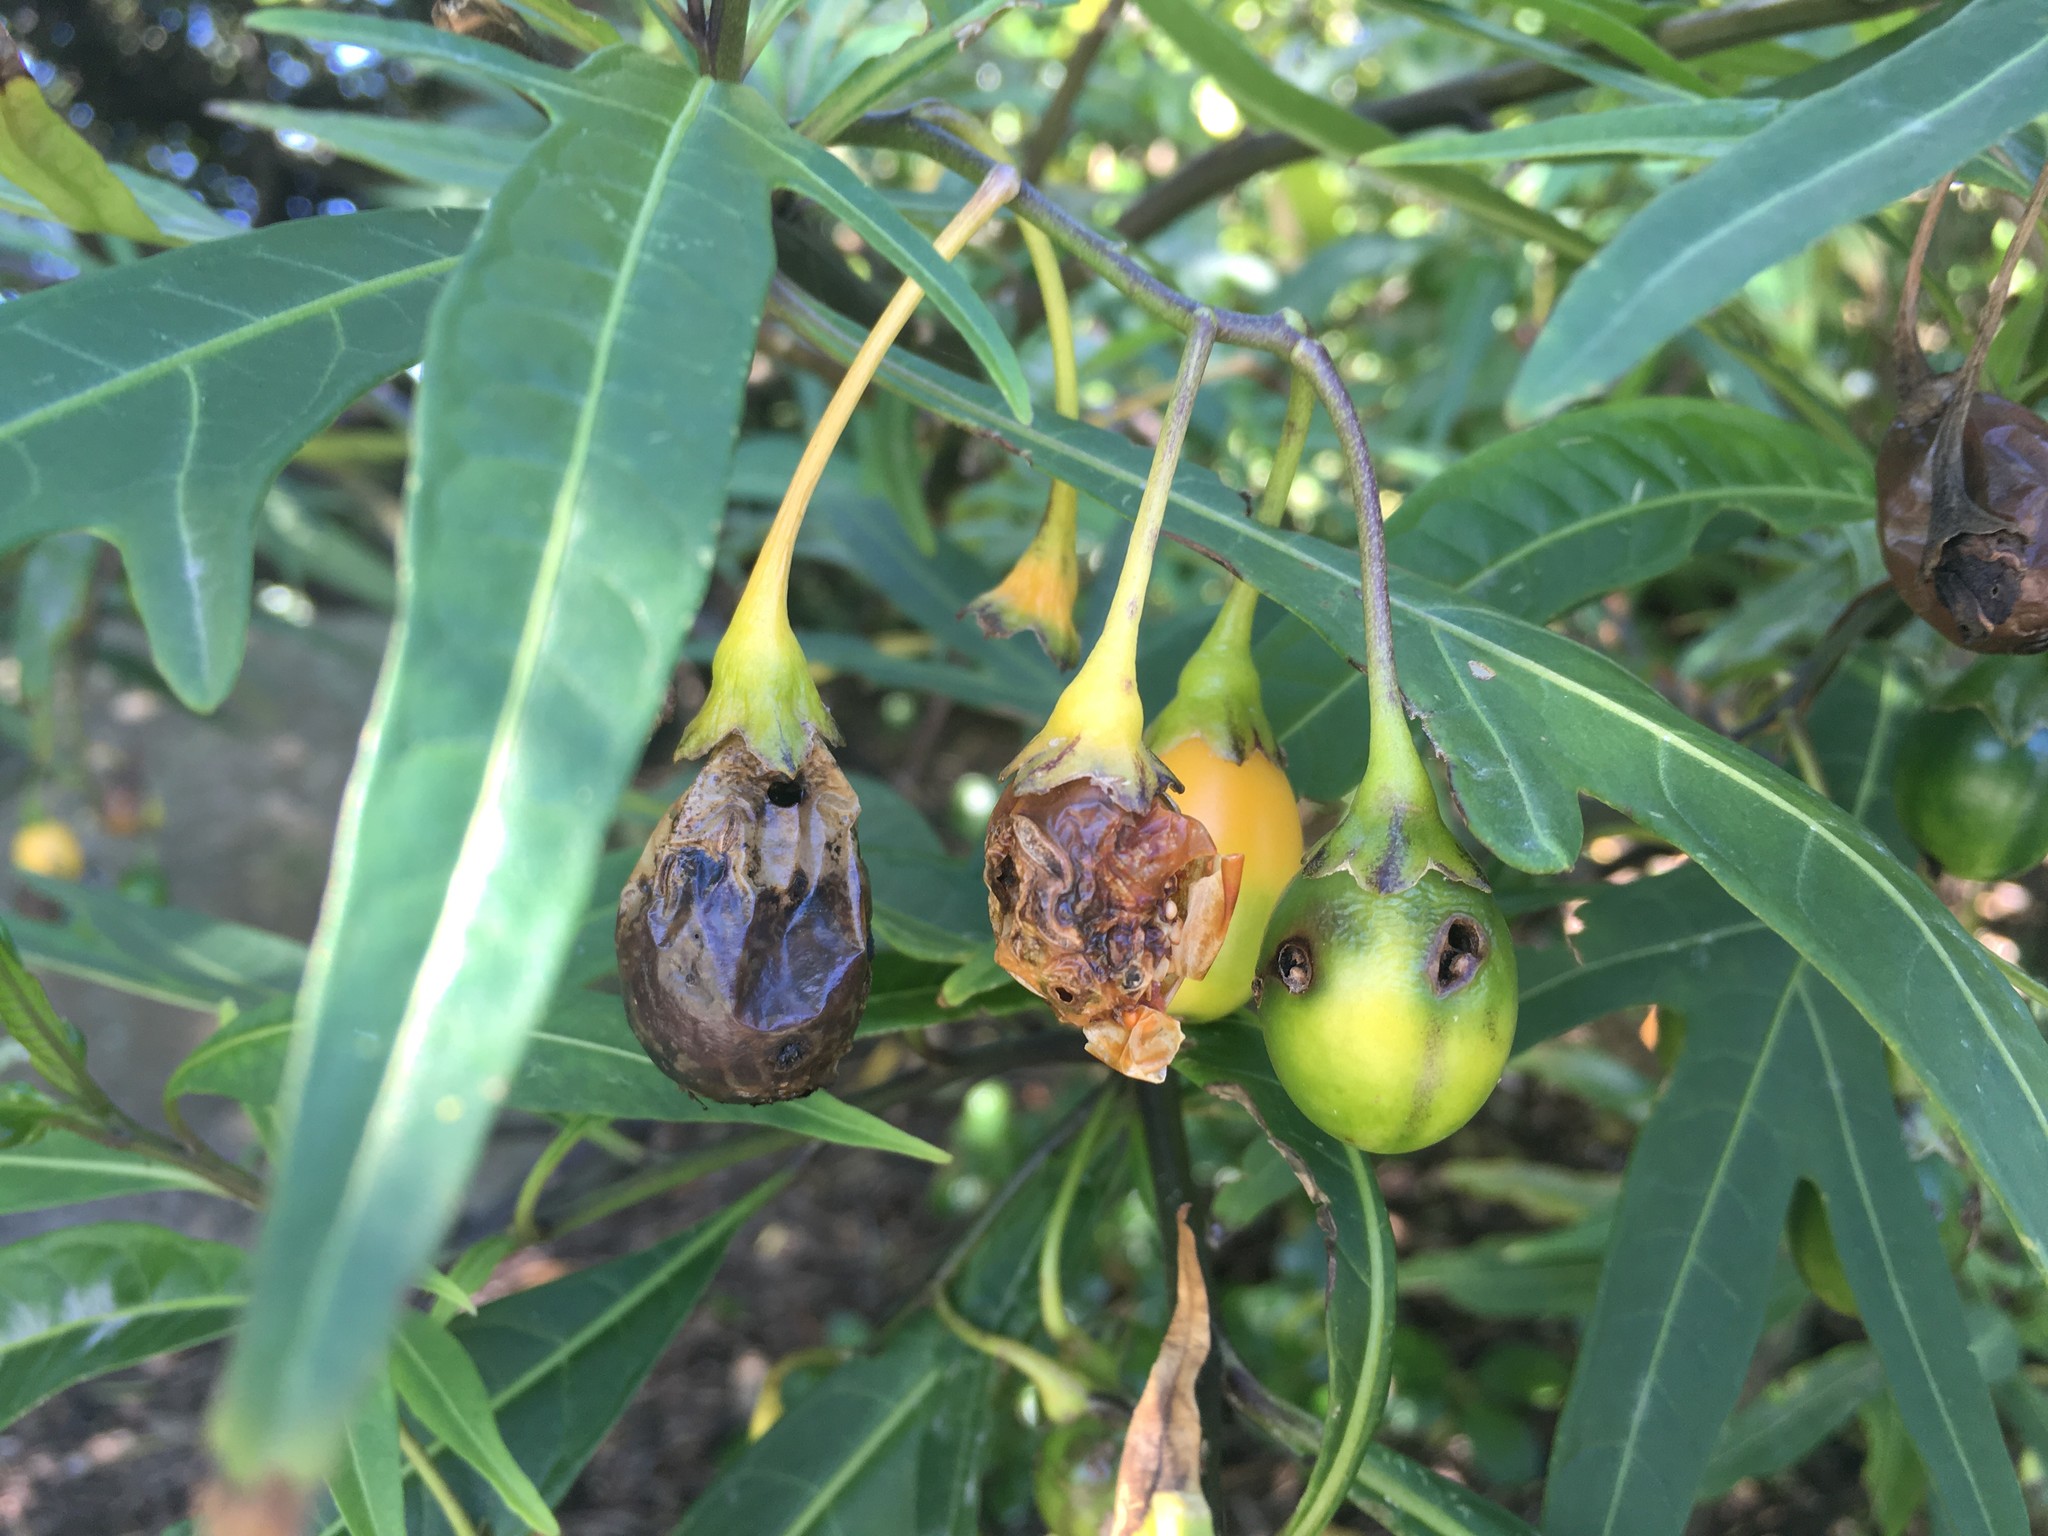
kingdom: Plantae
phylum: Tracheophyta
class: Magnoliopsida
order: Solanales
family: Solanaceae
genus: Solanum
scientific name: Solanum laciniatum
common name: Kangaroo-apple
